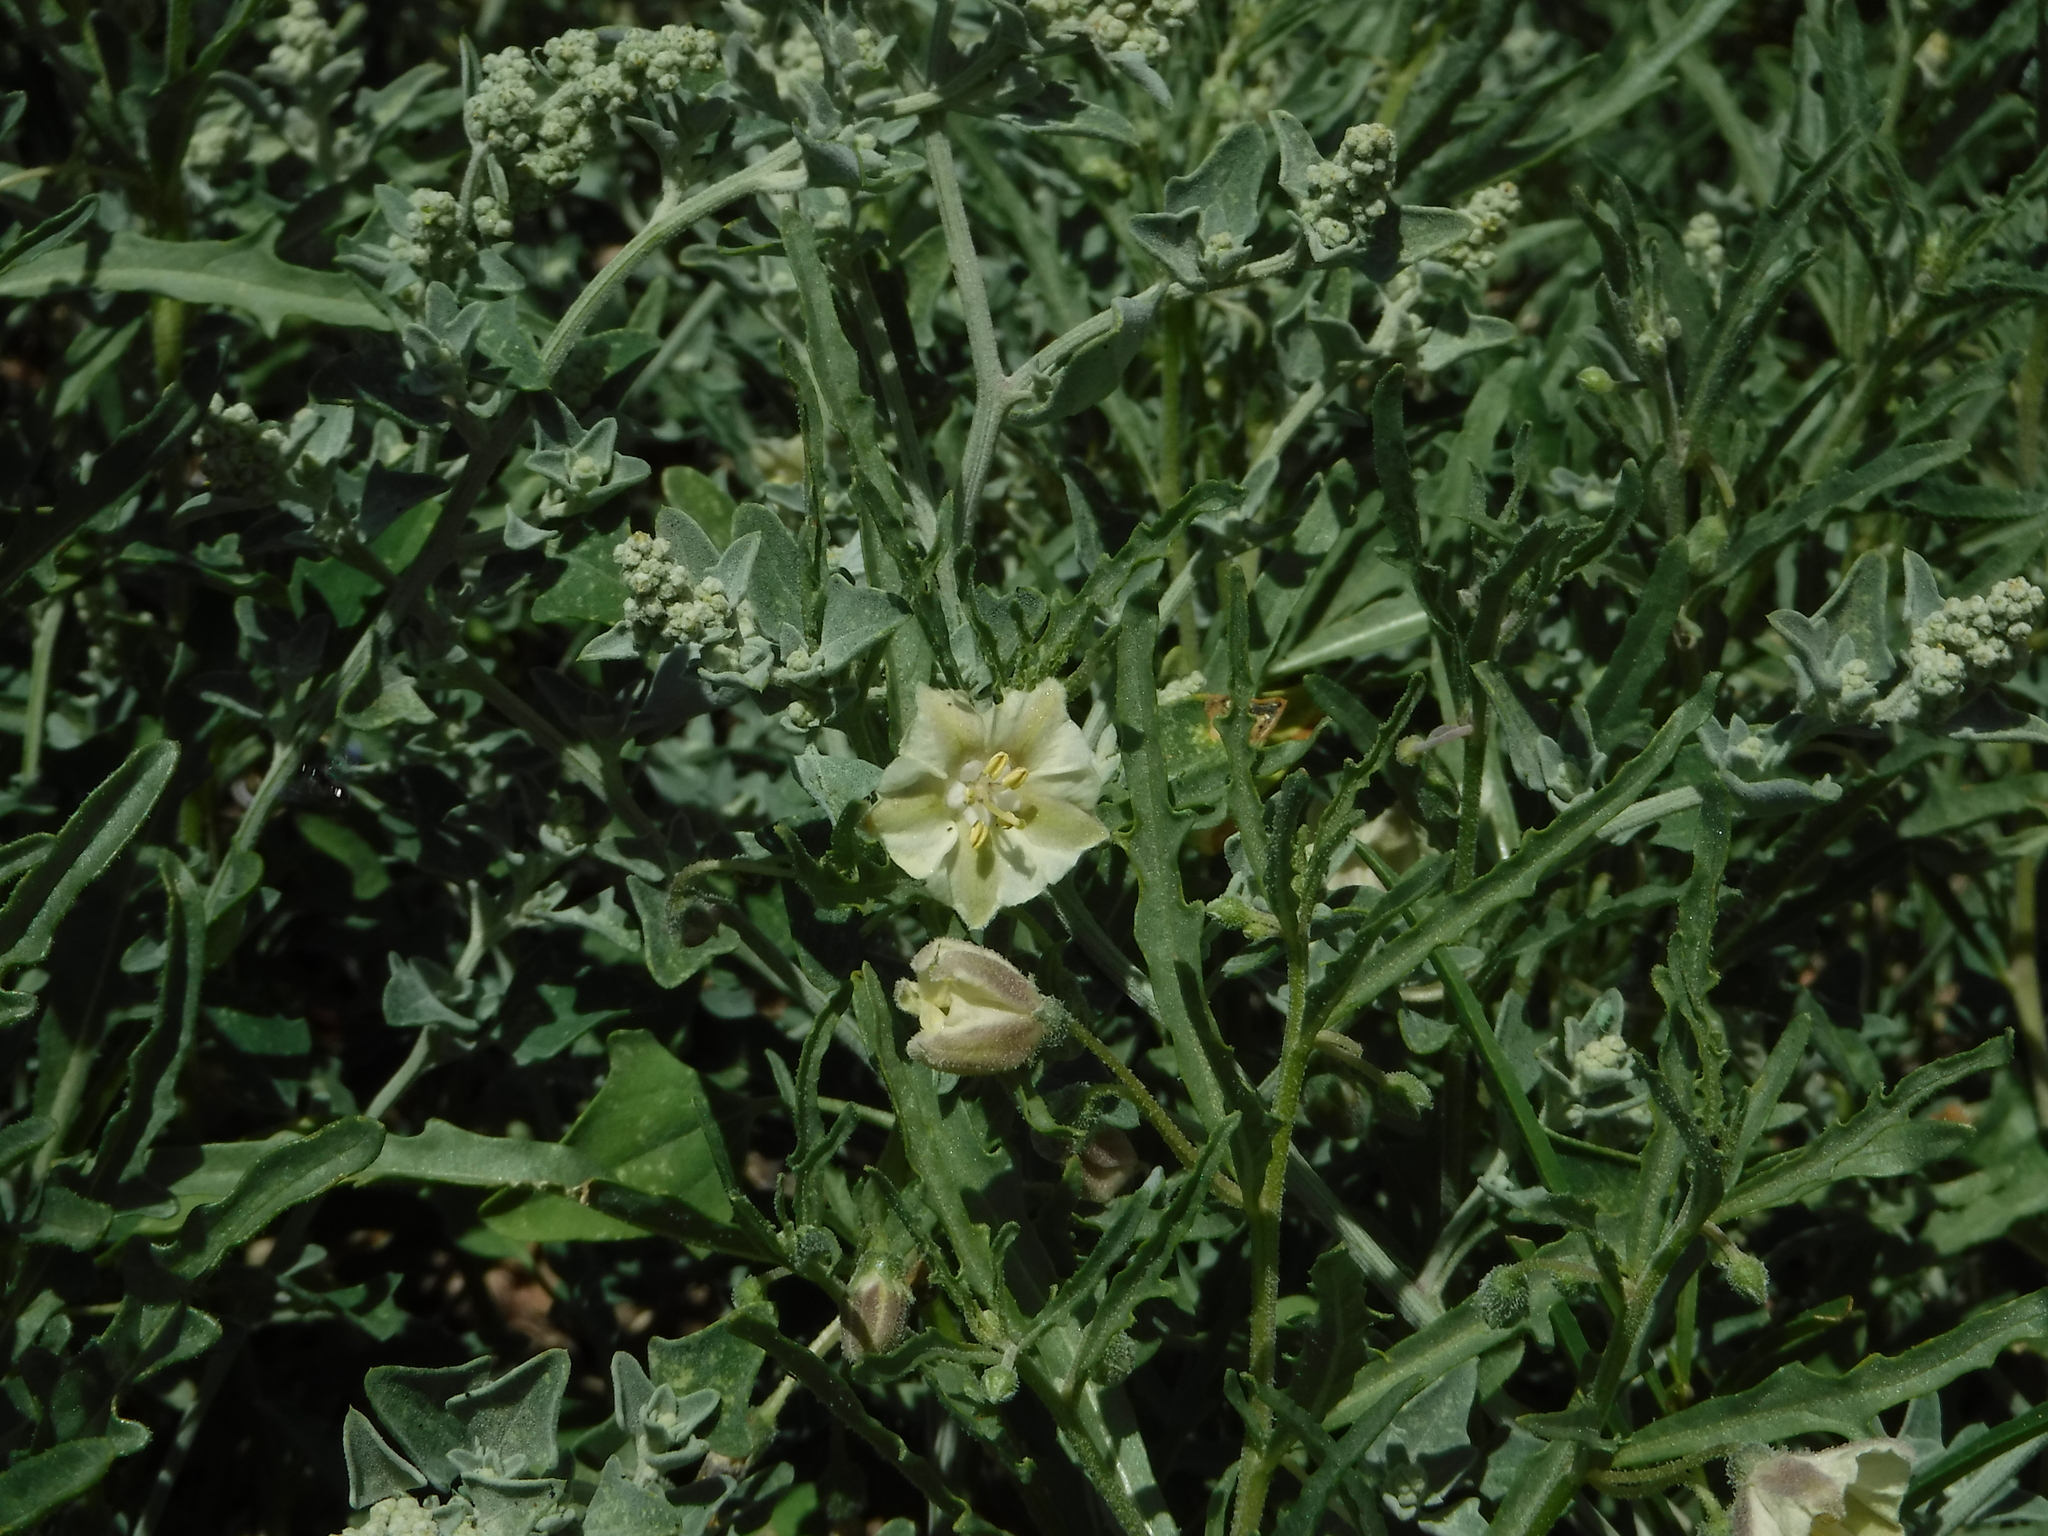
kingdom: Plantae
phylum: Tracheophyta
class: Magnoliopsida
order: Solanales
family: Solanaceae
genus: Chamaesaracha
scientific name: Chamaesaracha coronopus
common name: Smooth chamaesaracha
